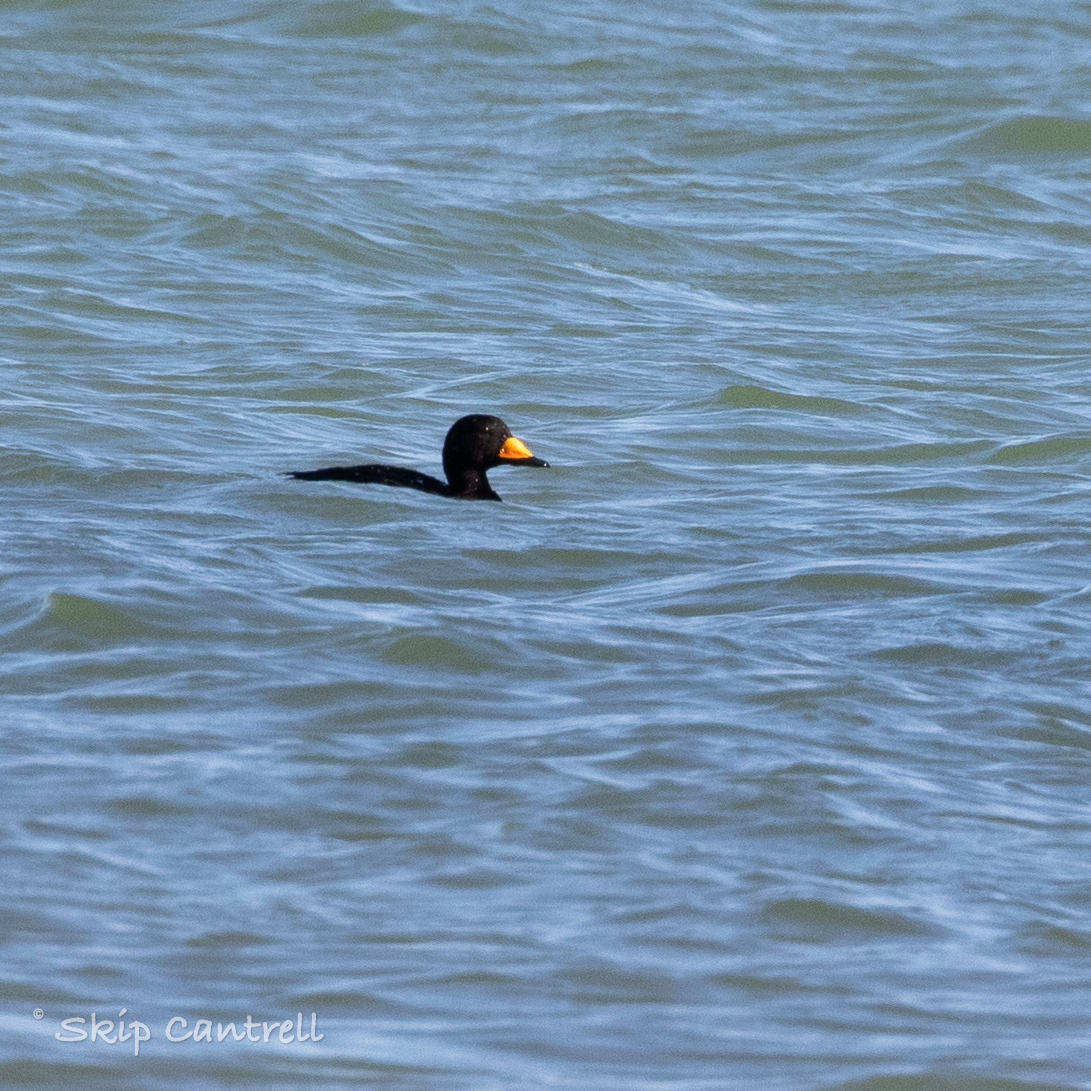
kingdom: Animalia
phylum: Chordata
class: Aves
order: Anseriformes
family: Anatidae
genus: Melanitta
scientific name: Melanitta americana
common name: Black scoter
